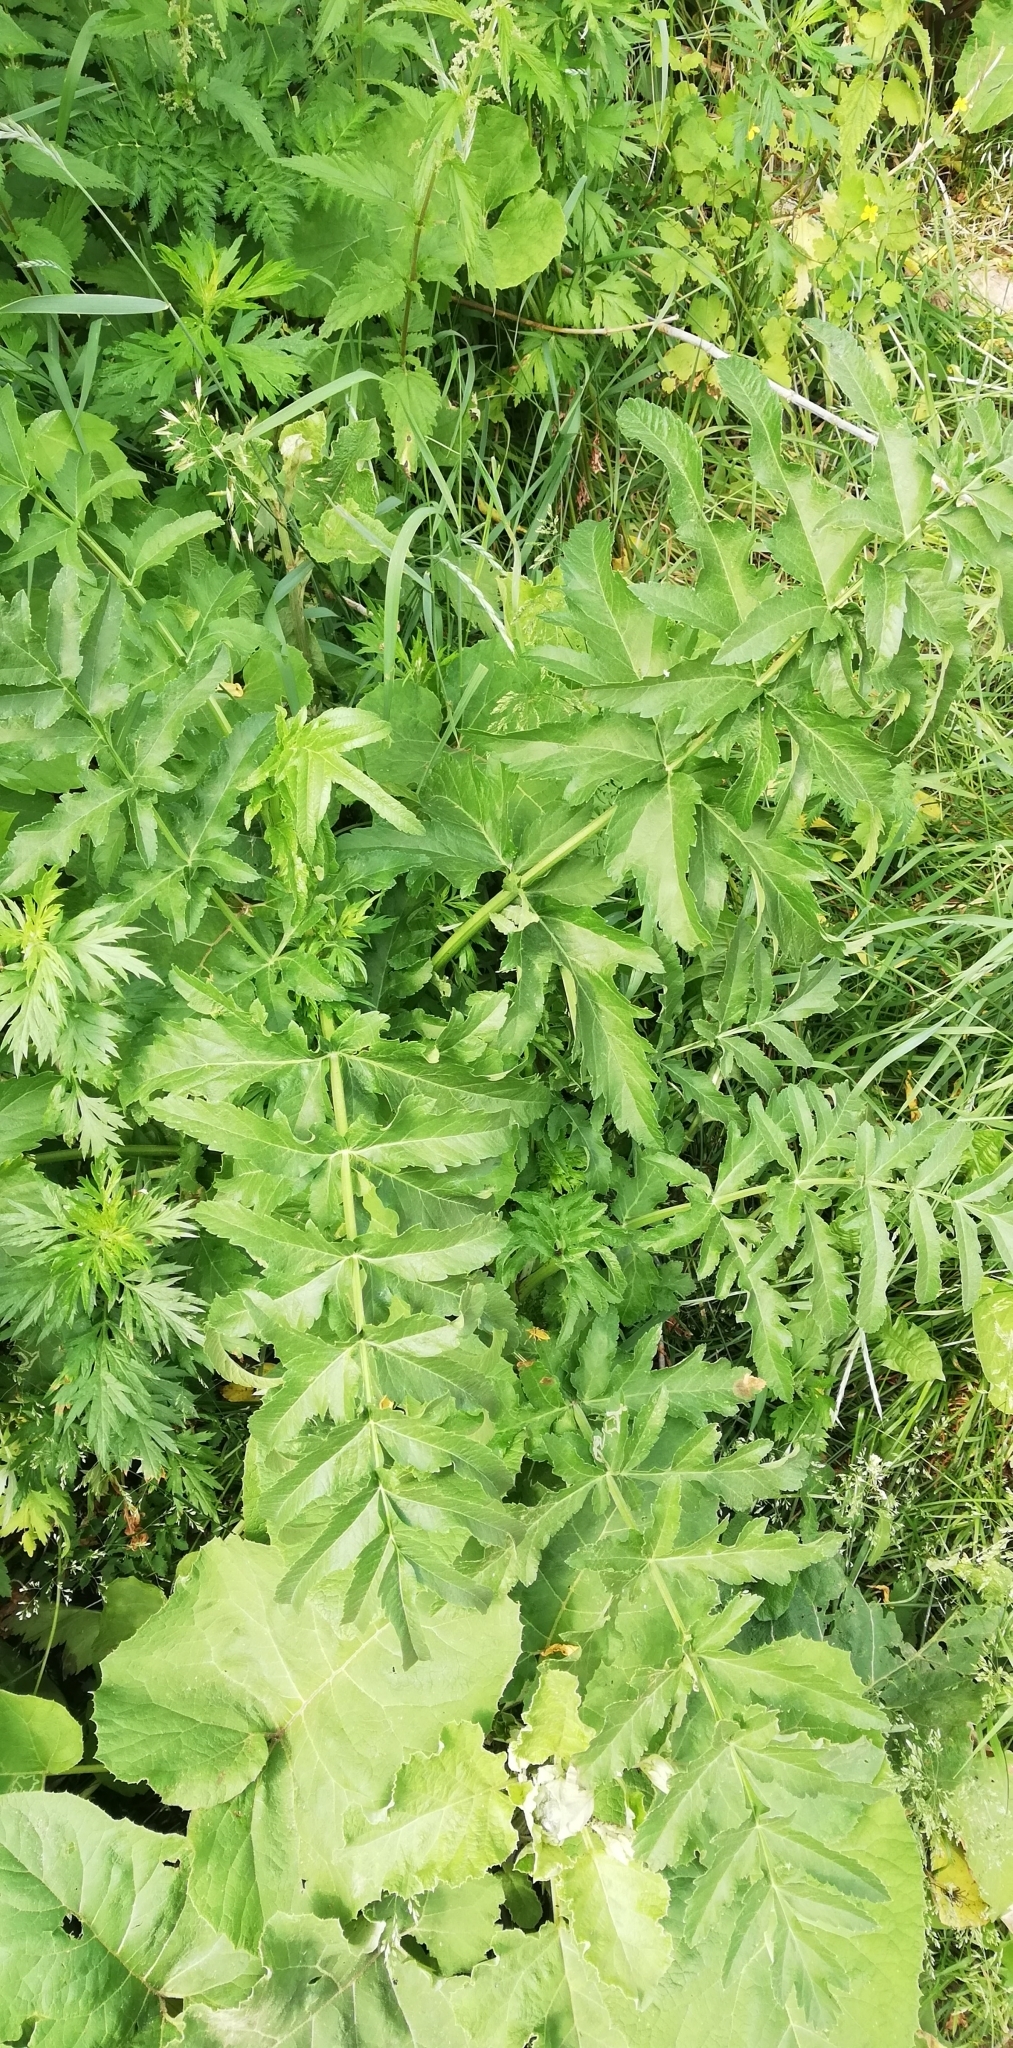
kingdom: Plantae
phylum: Tracheophyta
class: Magnoliopsida
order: Apiales
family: Apiaceae
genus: Pastinaca
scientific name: Pastinaca sativa
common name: Wild parsnip
